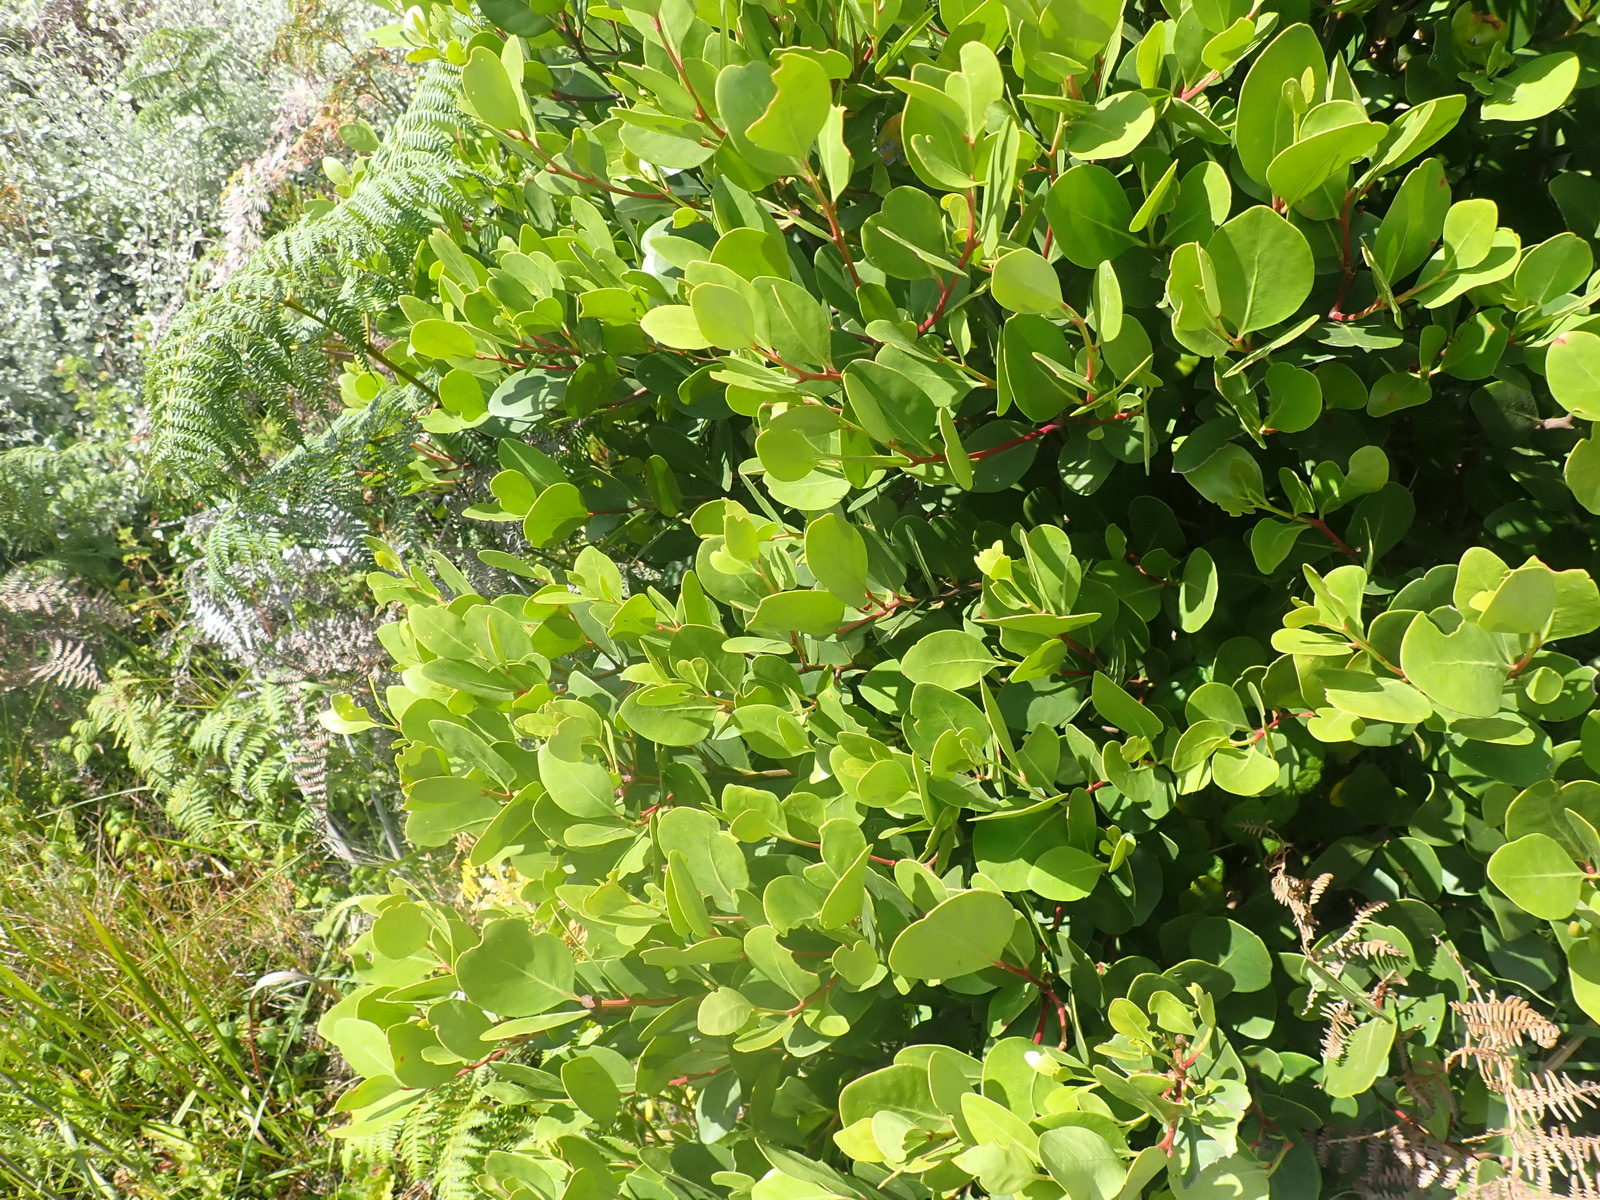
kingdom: Plantae
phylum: Tracheophyta
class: Magnoliopsida
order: Celastrales
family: Celastraceae
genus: Pterocelastrus
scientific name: Pterocelastrus tricuspidatus
